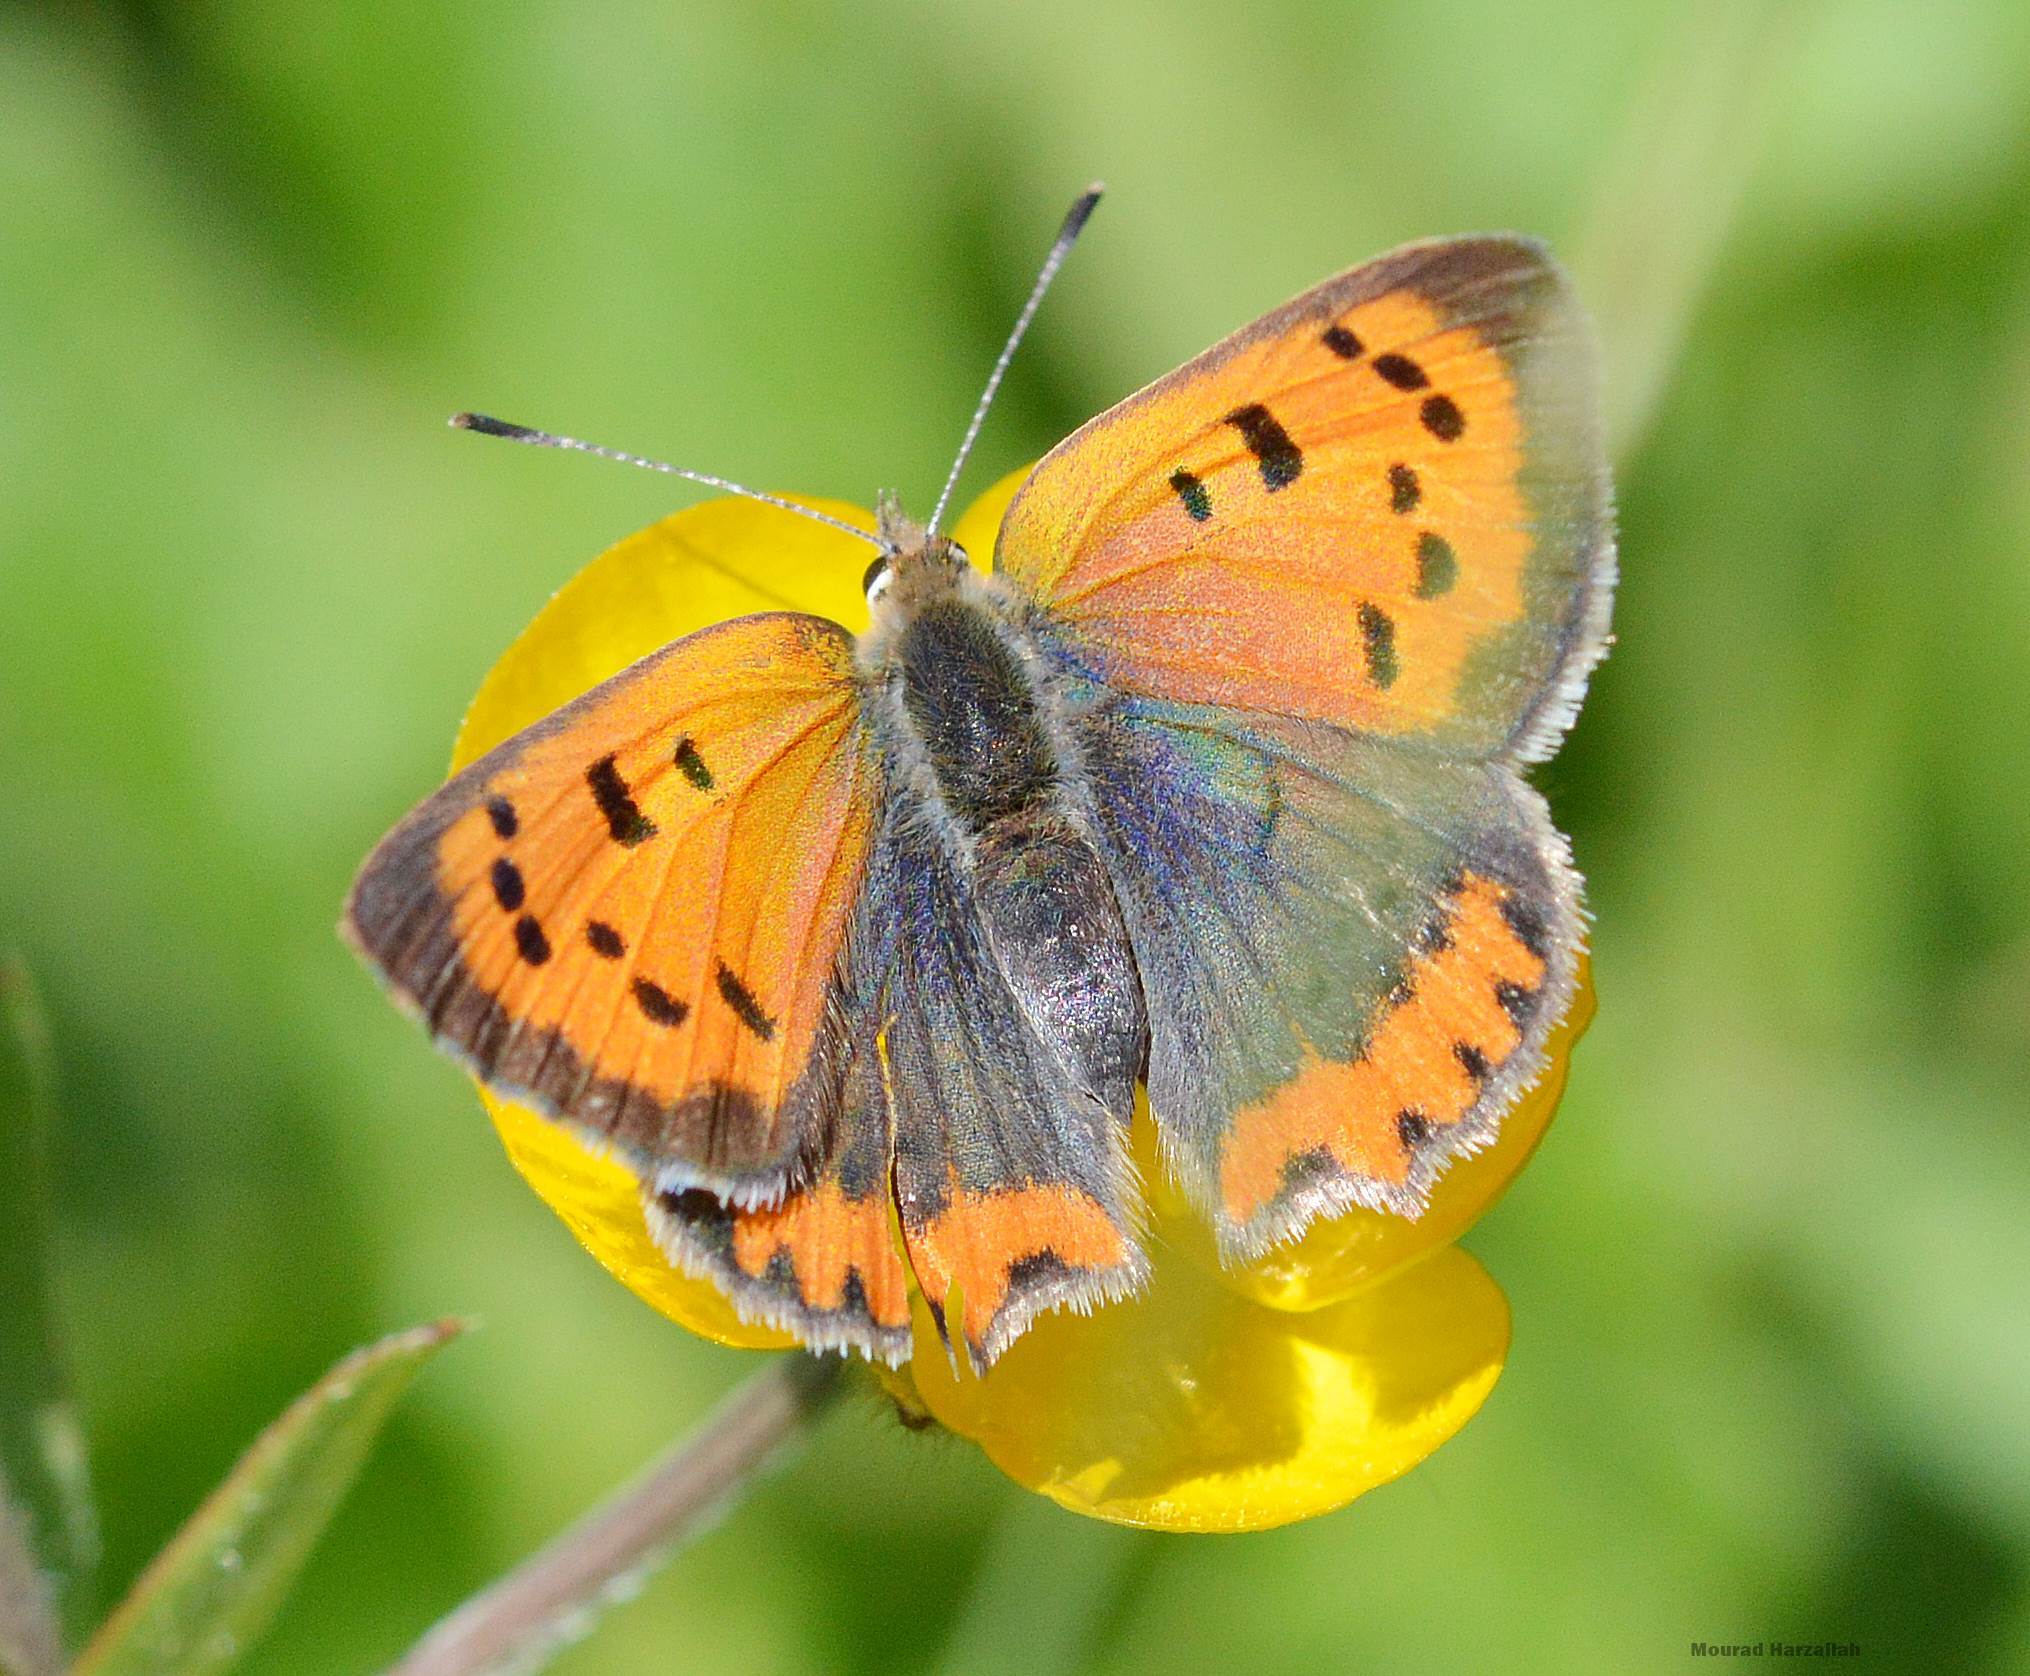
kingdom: Animalia
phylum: Arthropoda
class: Insecta
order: Lepidoptera
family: Lycaenidae
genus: Lycaena
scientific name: Lycaena phlaeas
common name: Small copper
